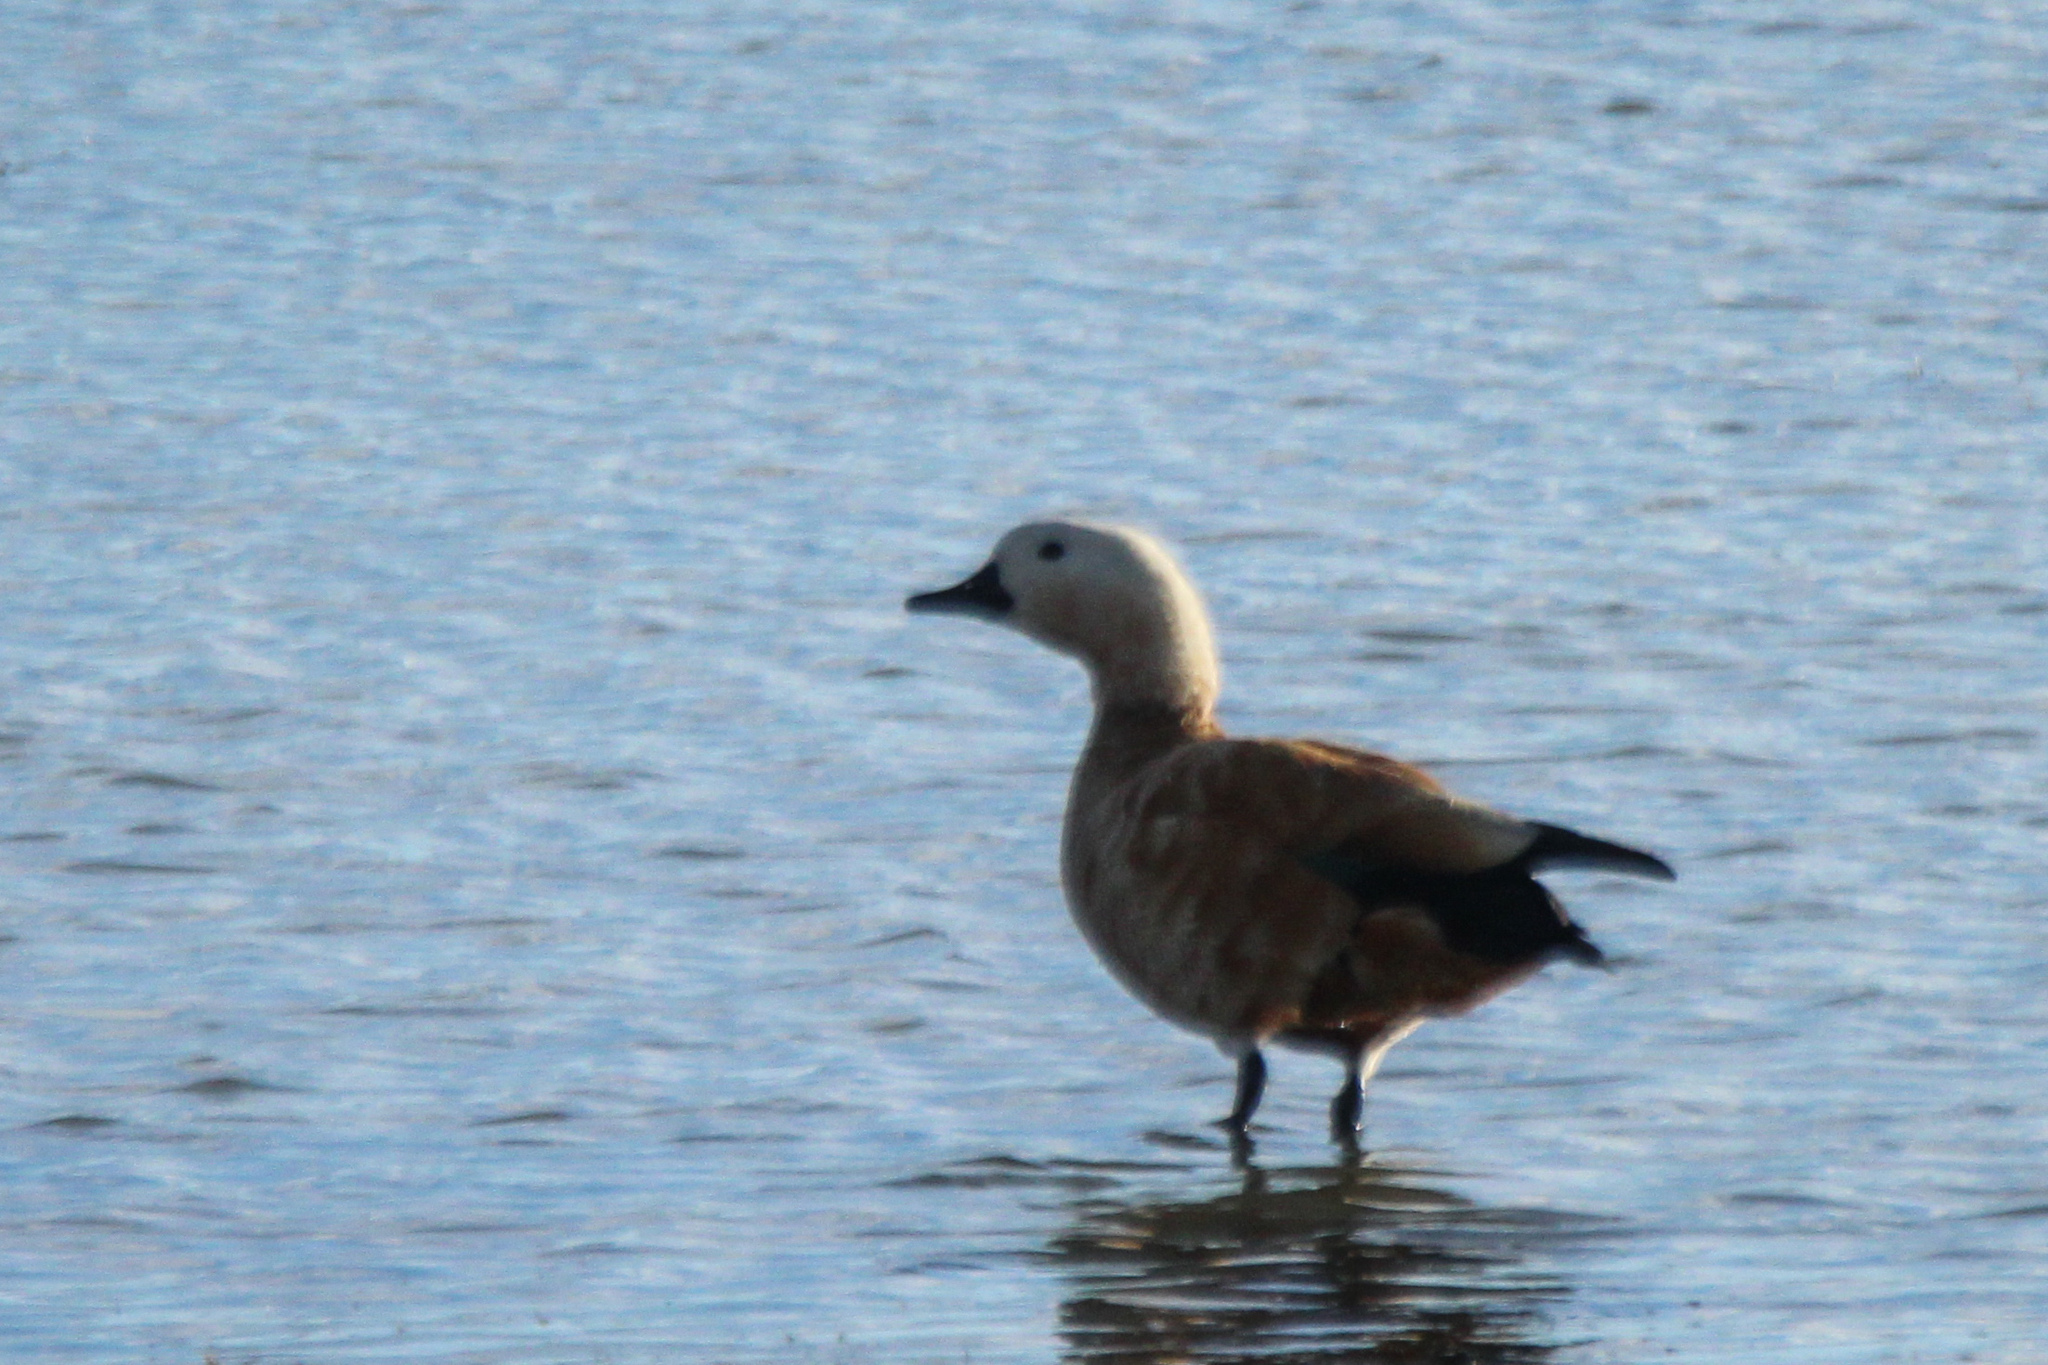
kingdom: Animalia
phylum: Chordata
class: Aves
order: Anseriformes
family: Anatidae
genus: Tadorna
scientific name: Tadorna ferruginea
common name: Ruddy shelduck
